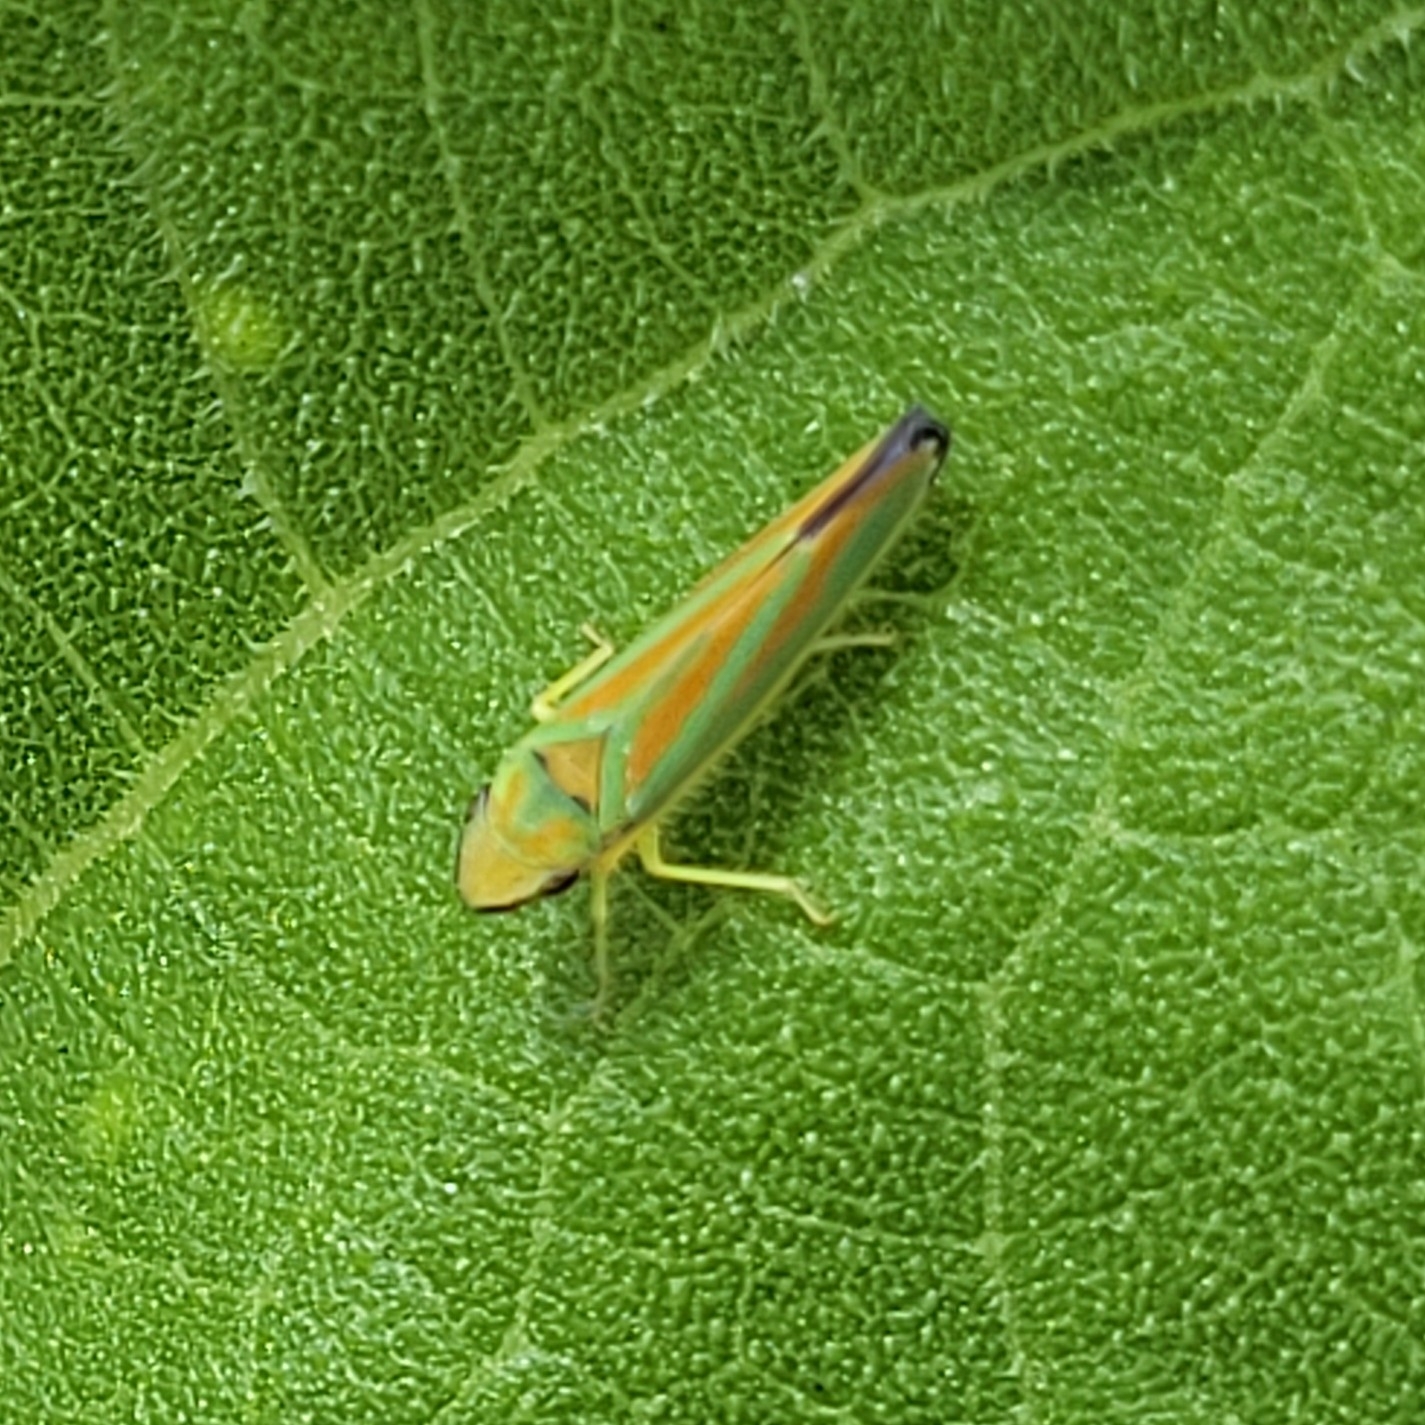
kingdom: Animalia
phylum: Arthropoda
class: Insecta
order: Hemiptera
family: Cicadellidae
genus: Graphocephala
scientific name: Graphocephala fennahi
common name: Rhododendron leafhopper
